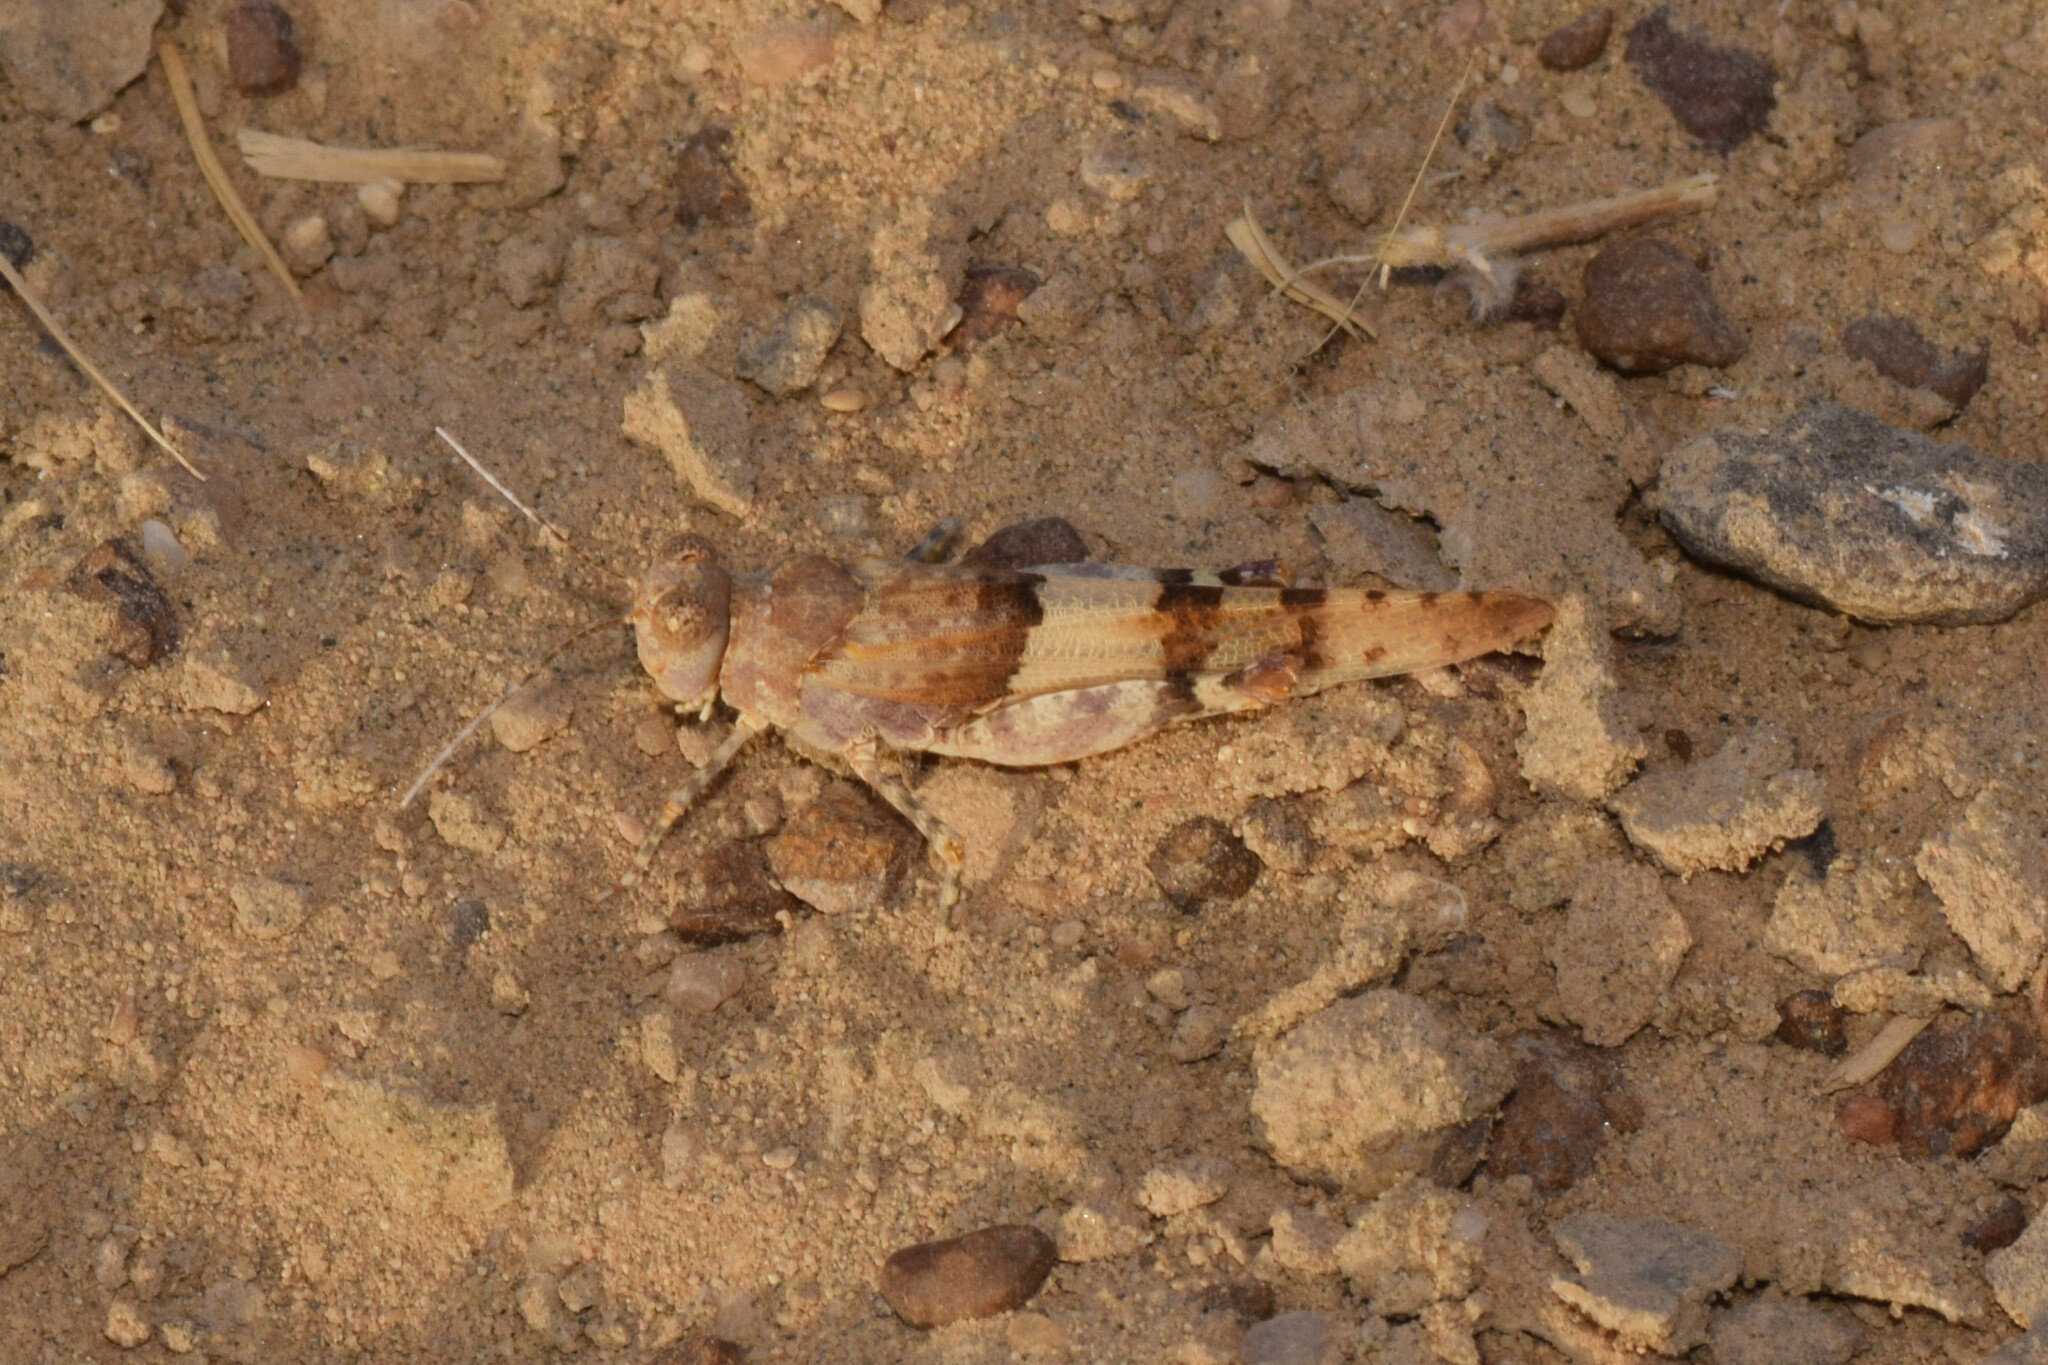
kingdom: Animalia
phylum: Arthropoda
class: Insecta
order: Orthoptera
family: Acrididae
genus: Sphingonotus
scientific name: Sphingonotus savignyi
